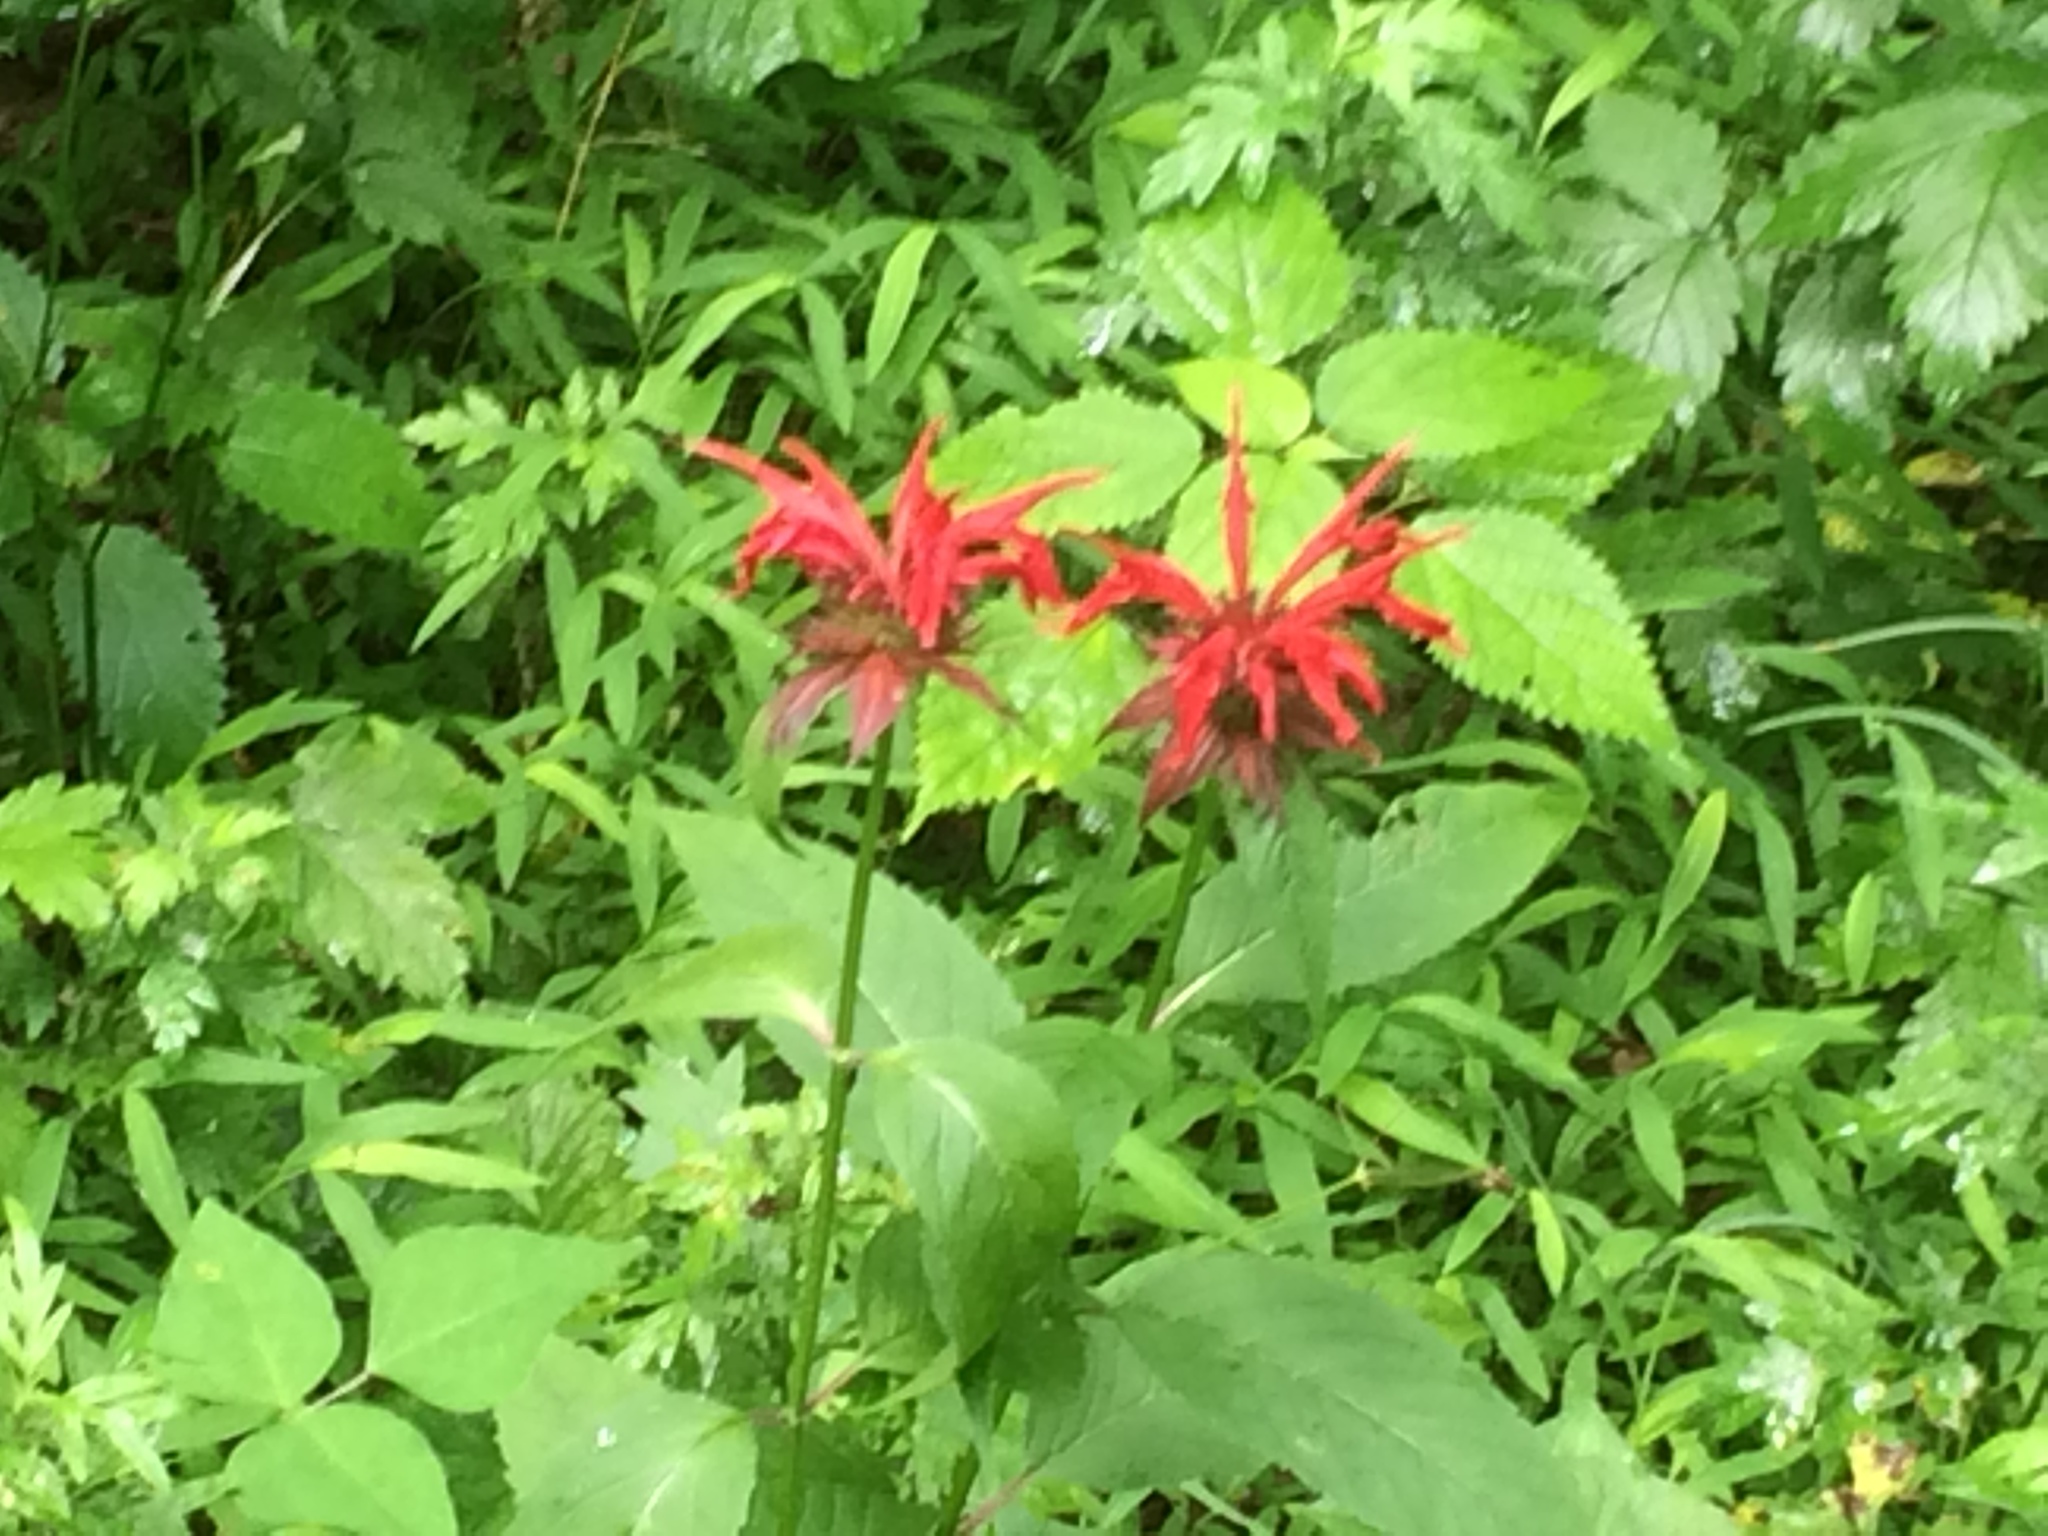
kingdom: Plantae
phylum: Tracheophyta
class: Magnoliopsida
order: Lamiales
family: Lamiaceae
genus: Monarda
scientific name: Monarda didyma
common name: Beebalm
